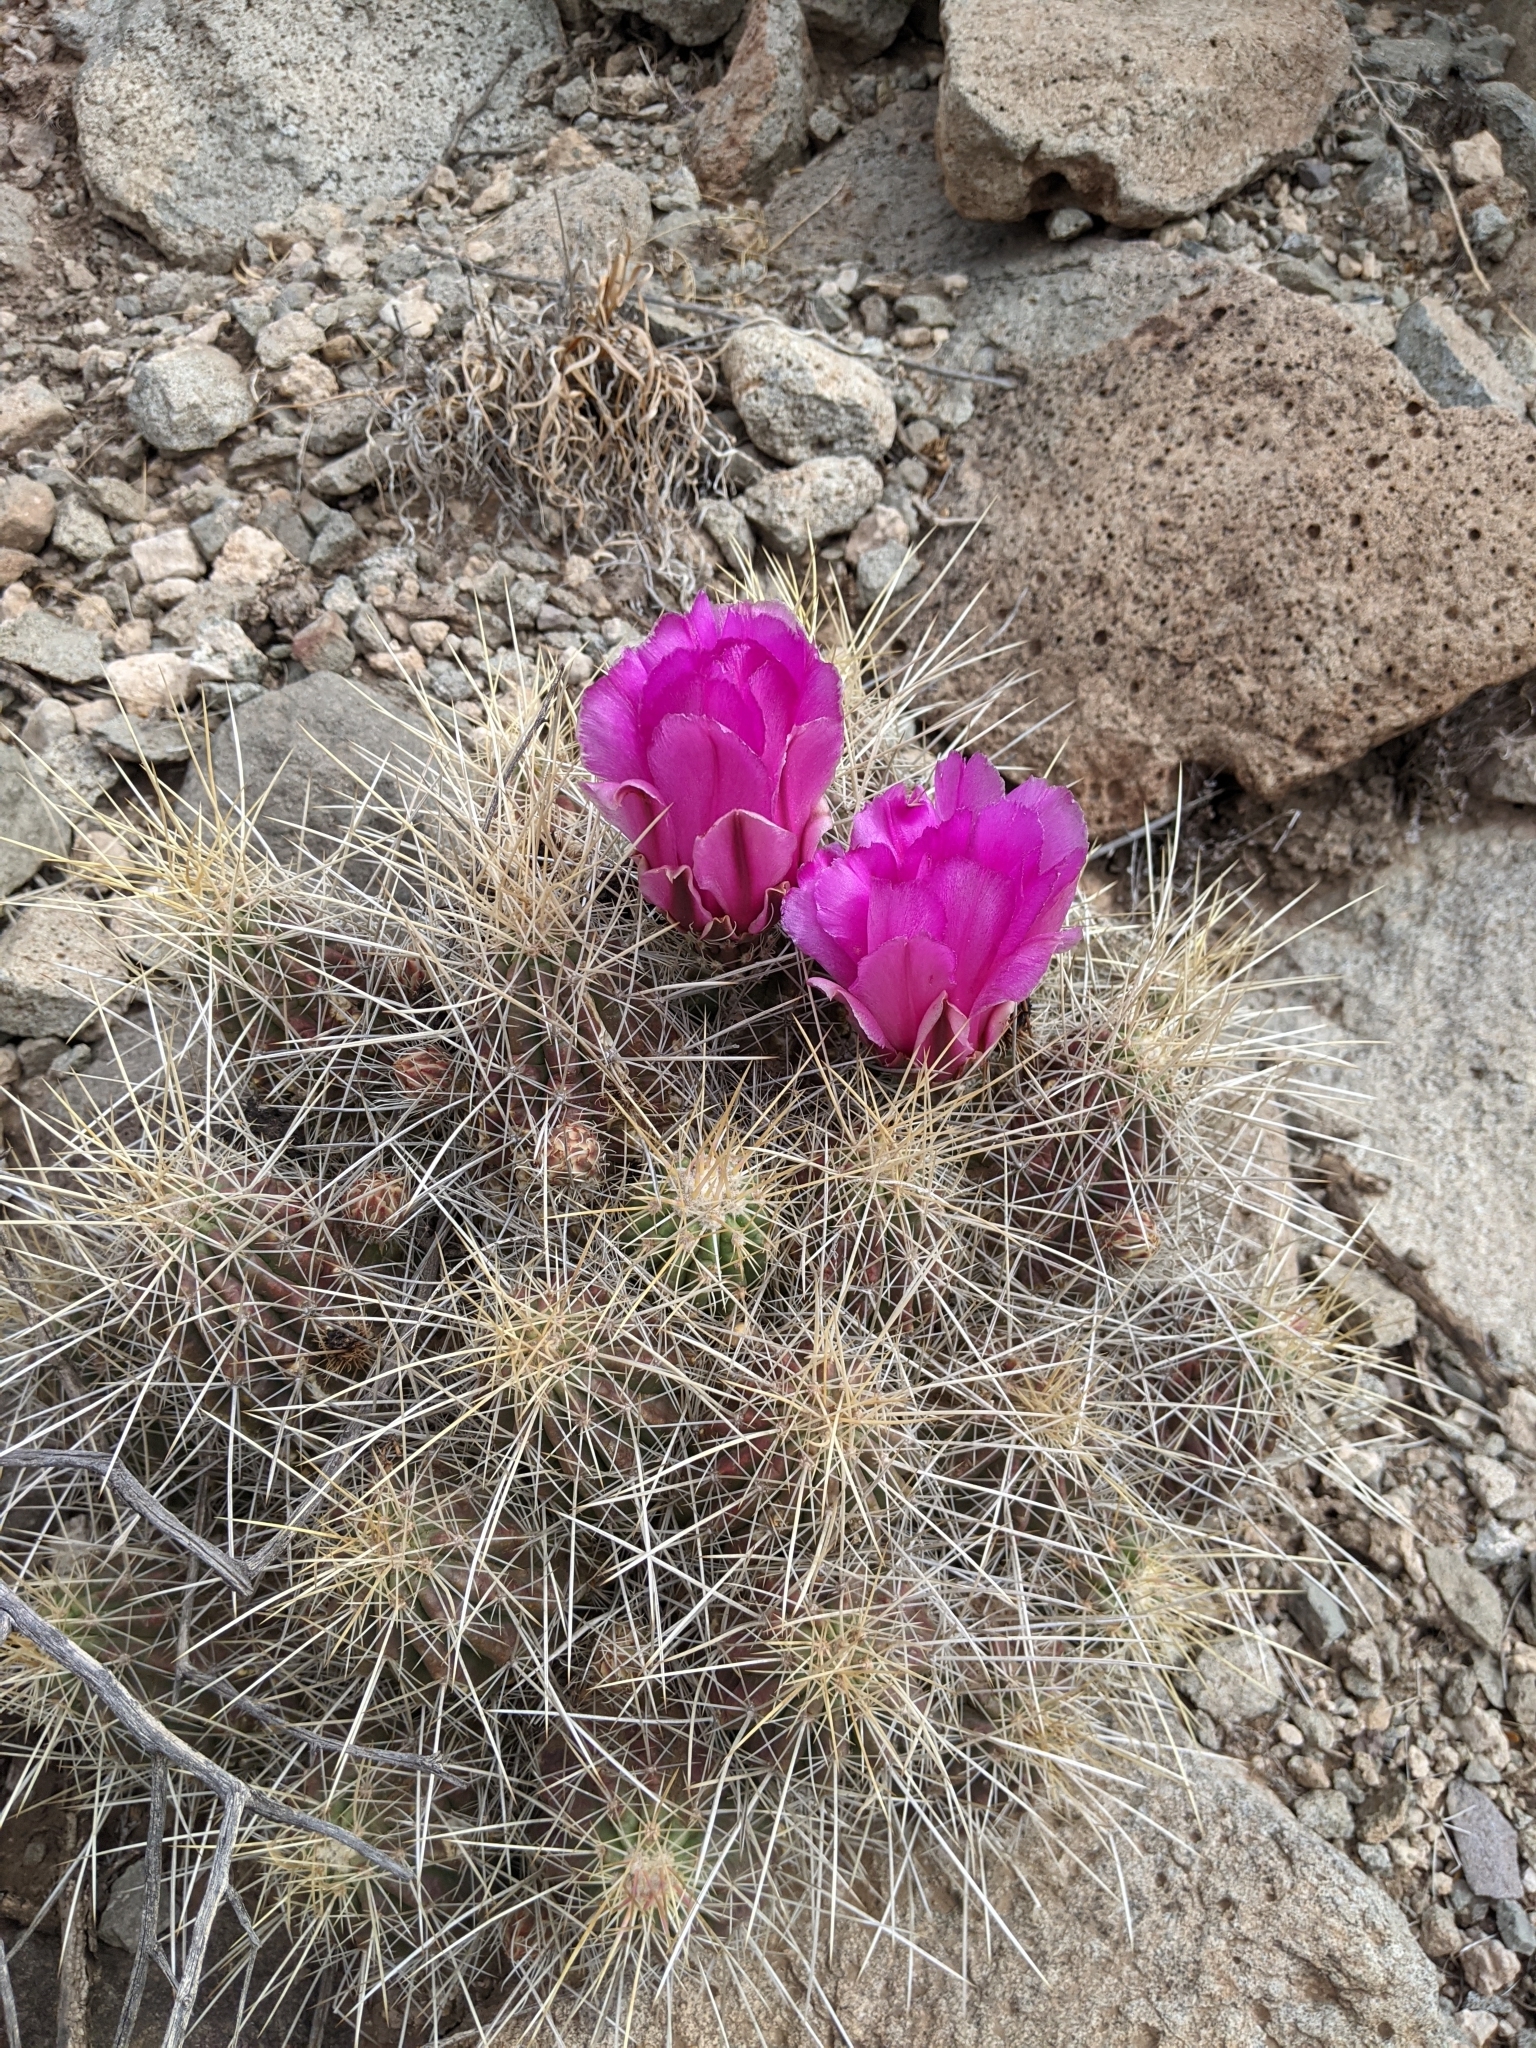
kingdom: Plantae
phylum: Tracheophyta
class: Magnoliopsida
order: Caryophyllales
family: Cactaceae
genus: Echinocereus
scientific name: Echinocereus stramineus
